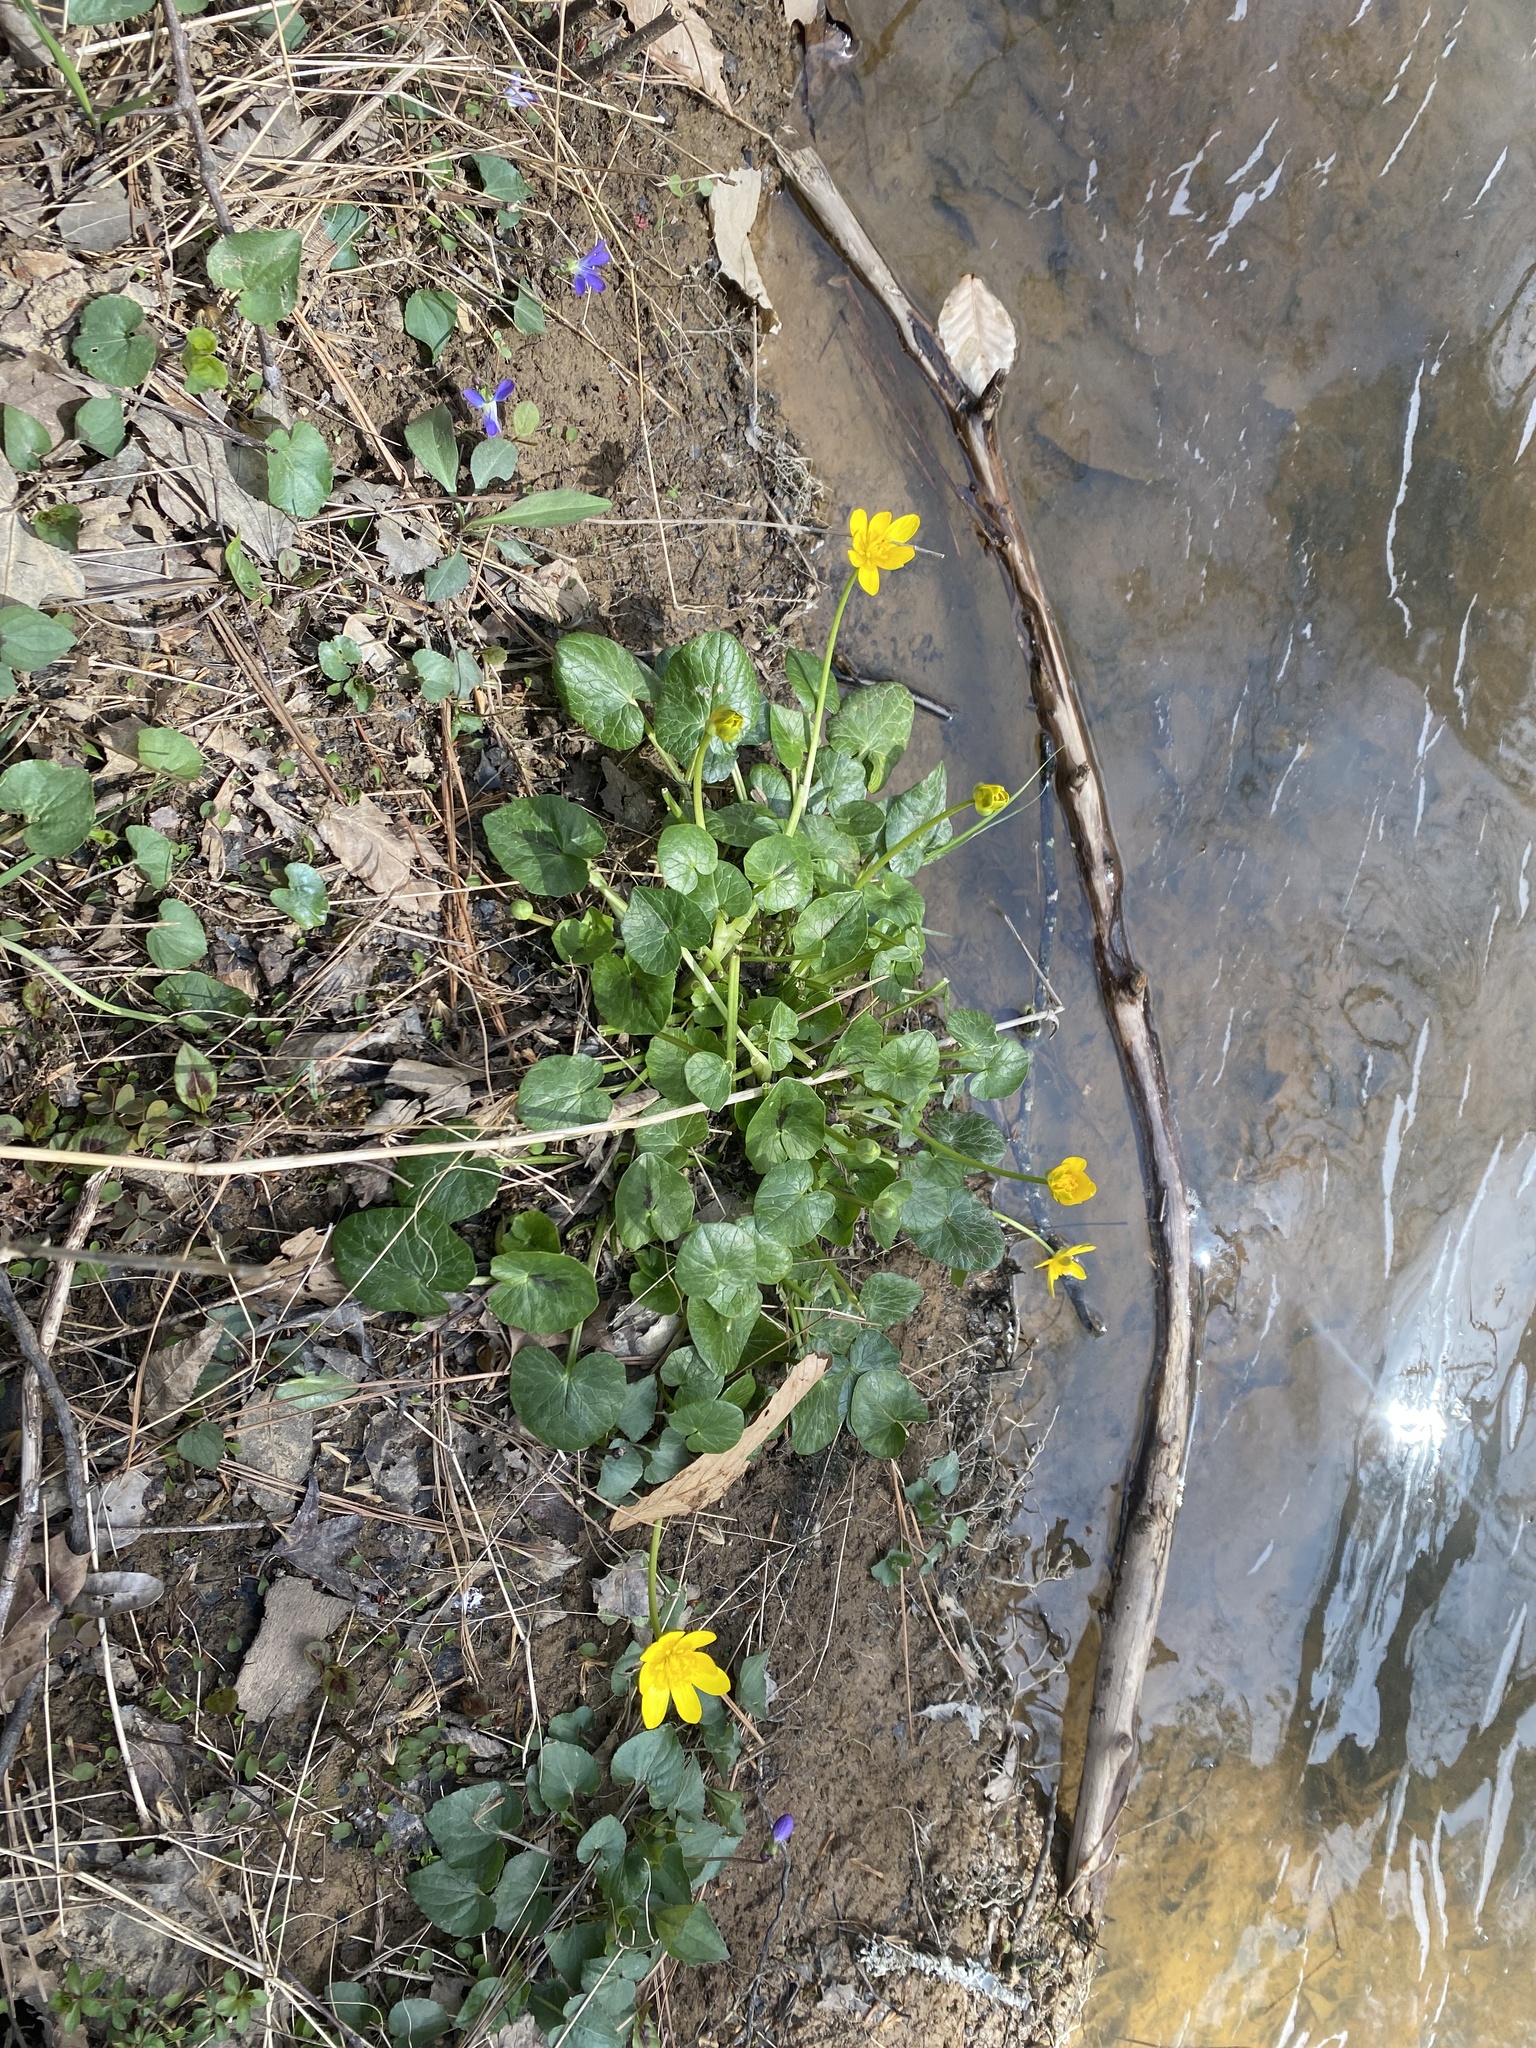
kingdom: Plantae
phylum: Tracheophyta
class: Magnoliopsida
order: Ranunculales
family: Ranunculaceae
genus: Ficaria
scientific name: Ficaria verna
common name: Lesser celandine
